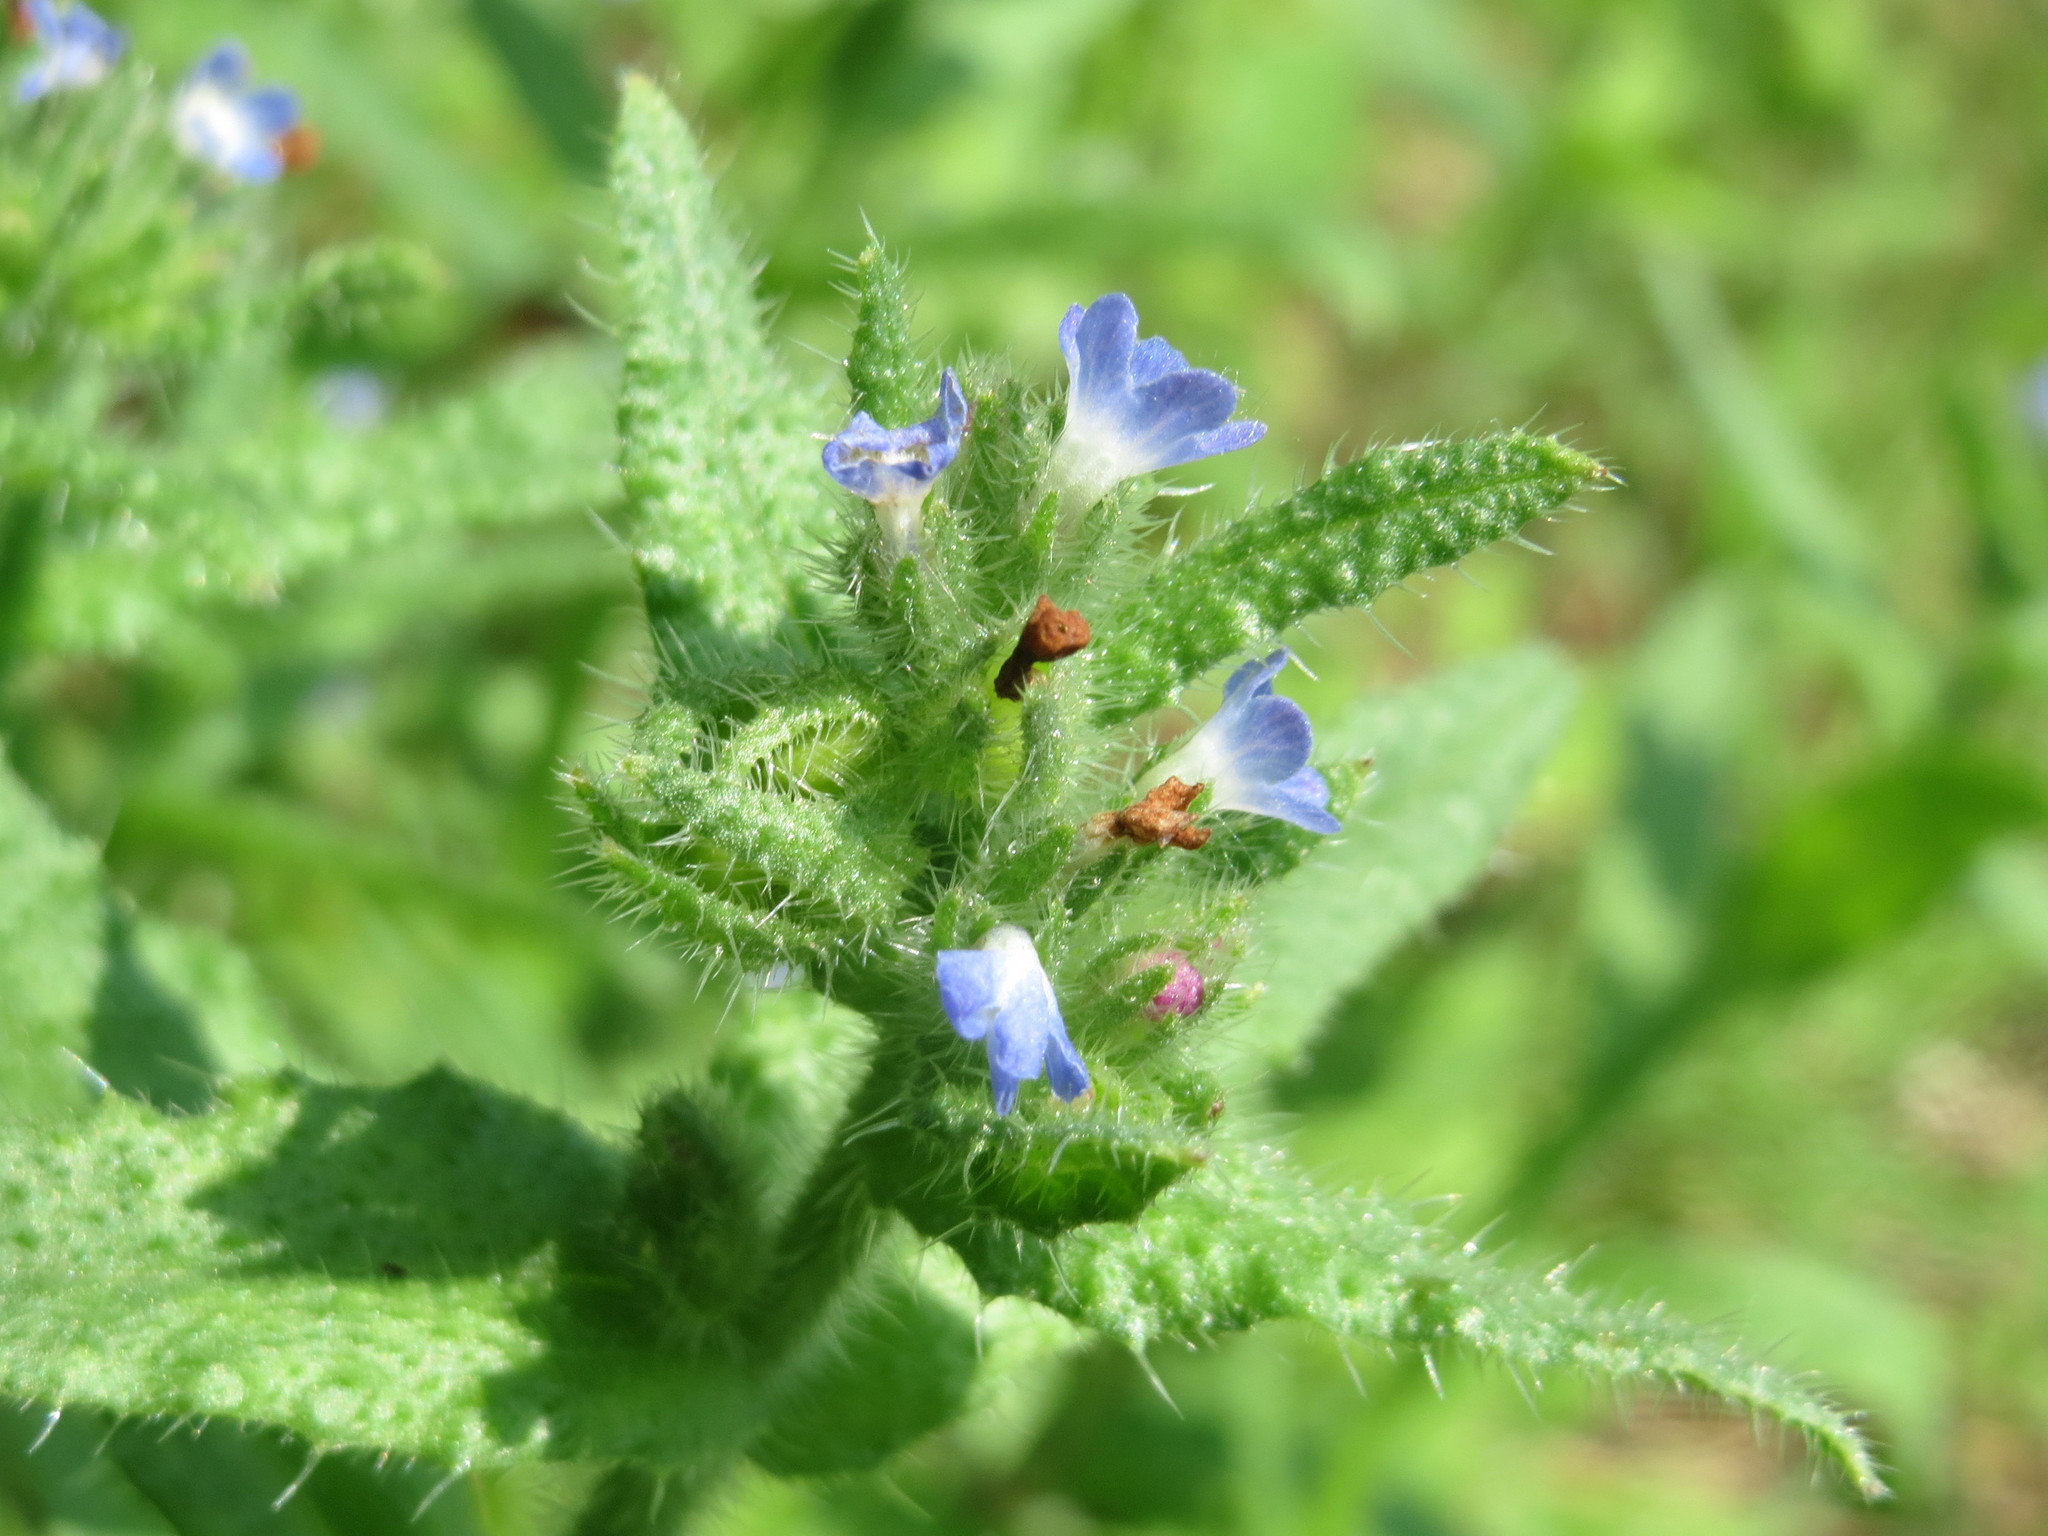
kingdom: Plantae
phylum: Tracheophyta
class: Magnoliopsida
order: Boraginales
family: Boraginaceae
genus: Lycopsis
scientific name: Lycopsis arvensis
